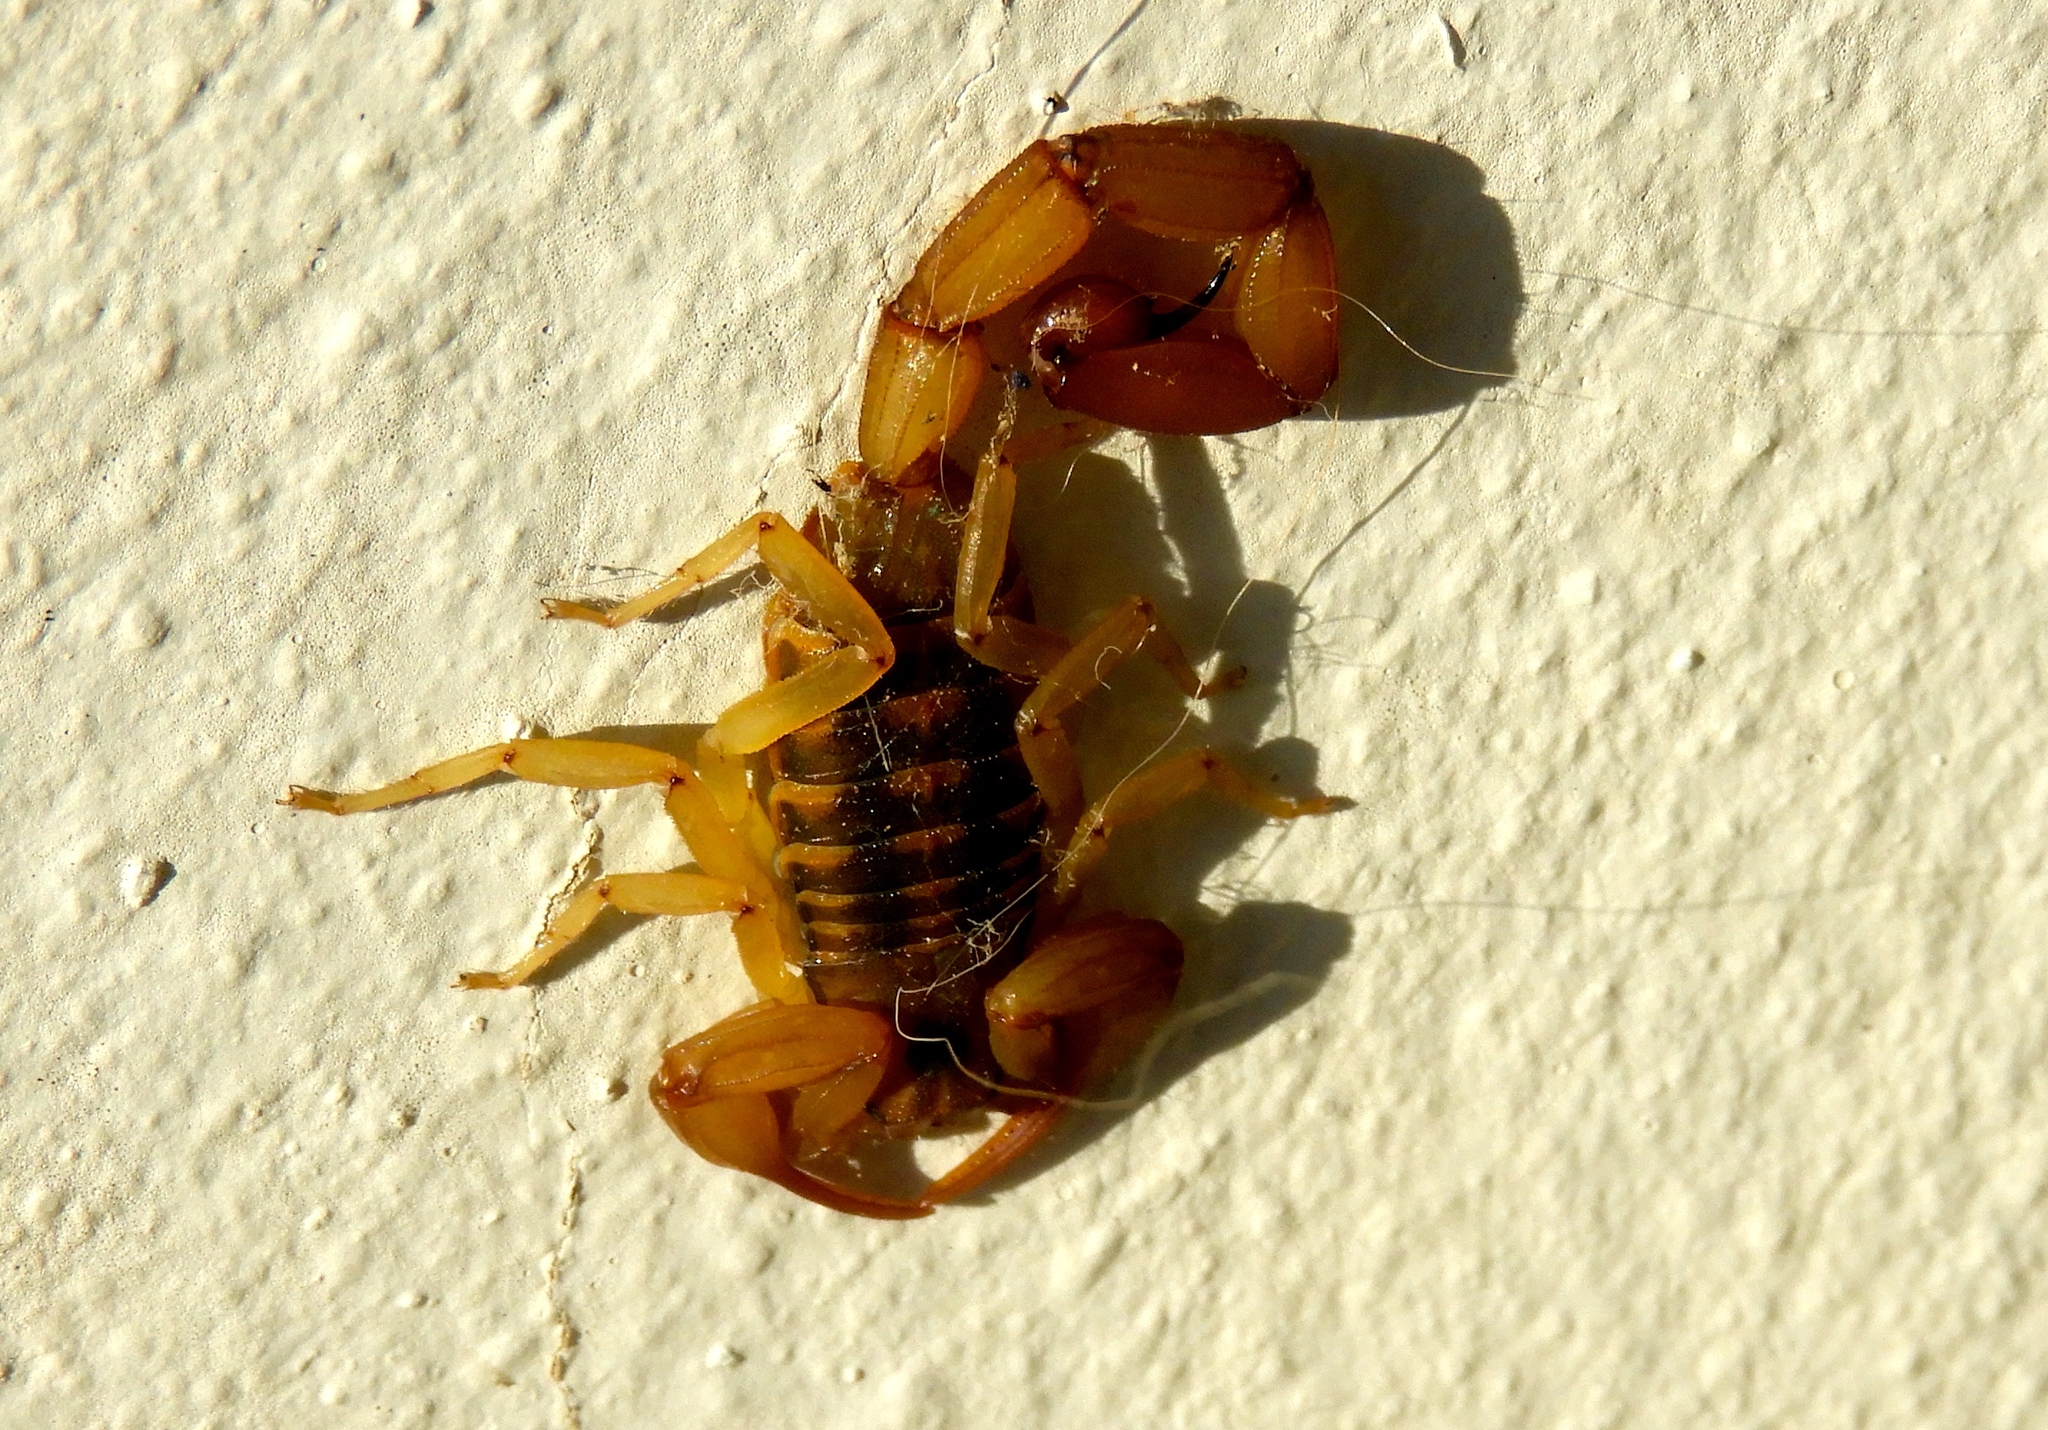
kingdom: Animalia
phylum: Arthropoda
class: Arachnida
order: Scorpiones
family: Buthidae
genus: Centruroides
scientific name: Centruroides baldazoi
